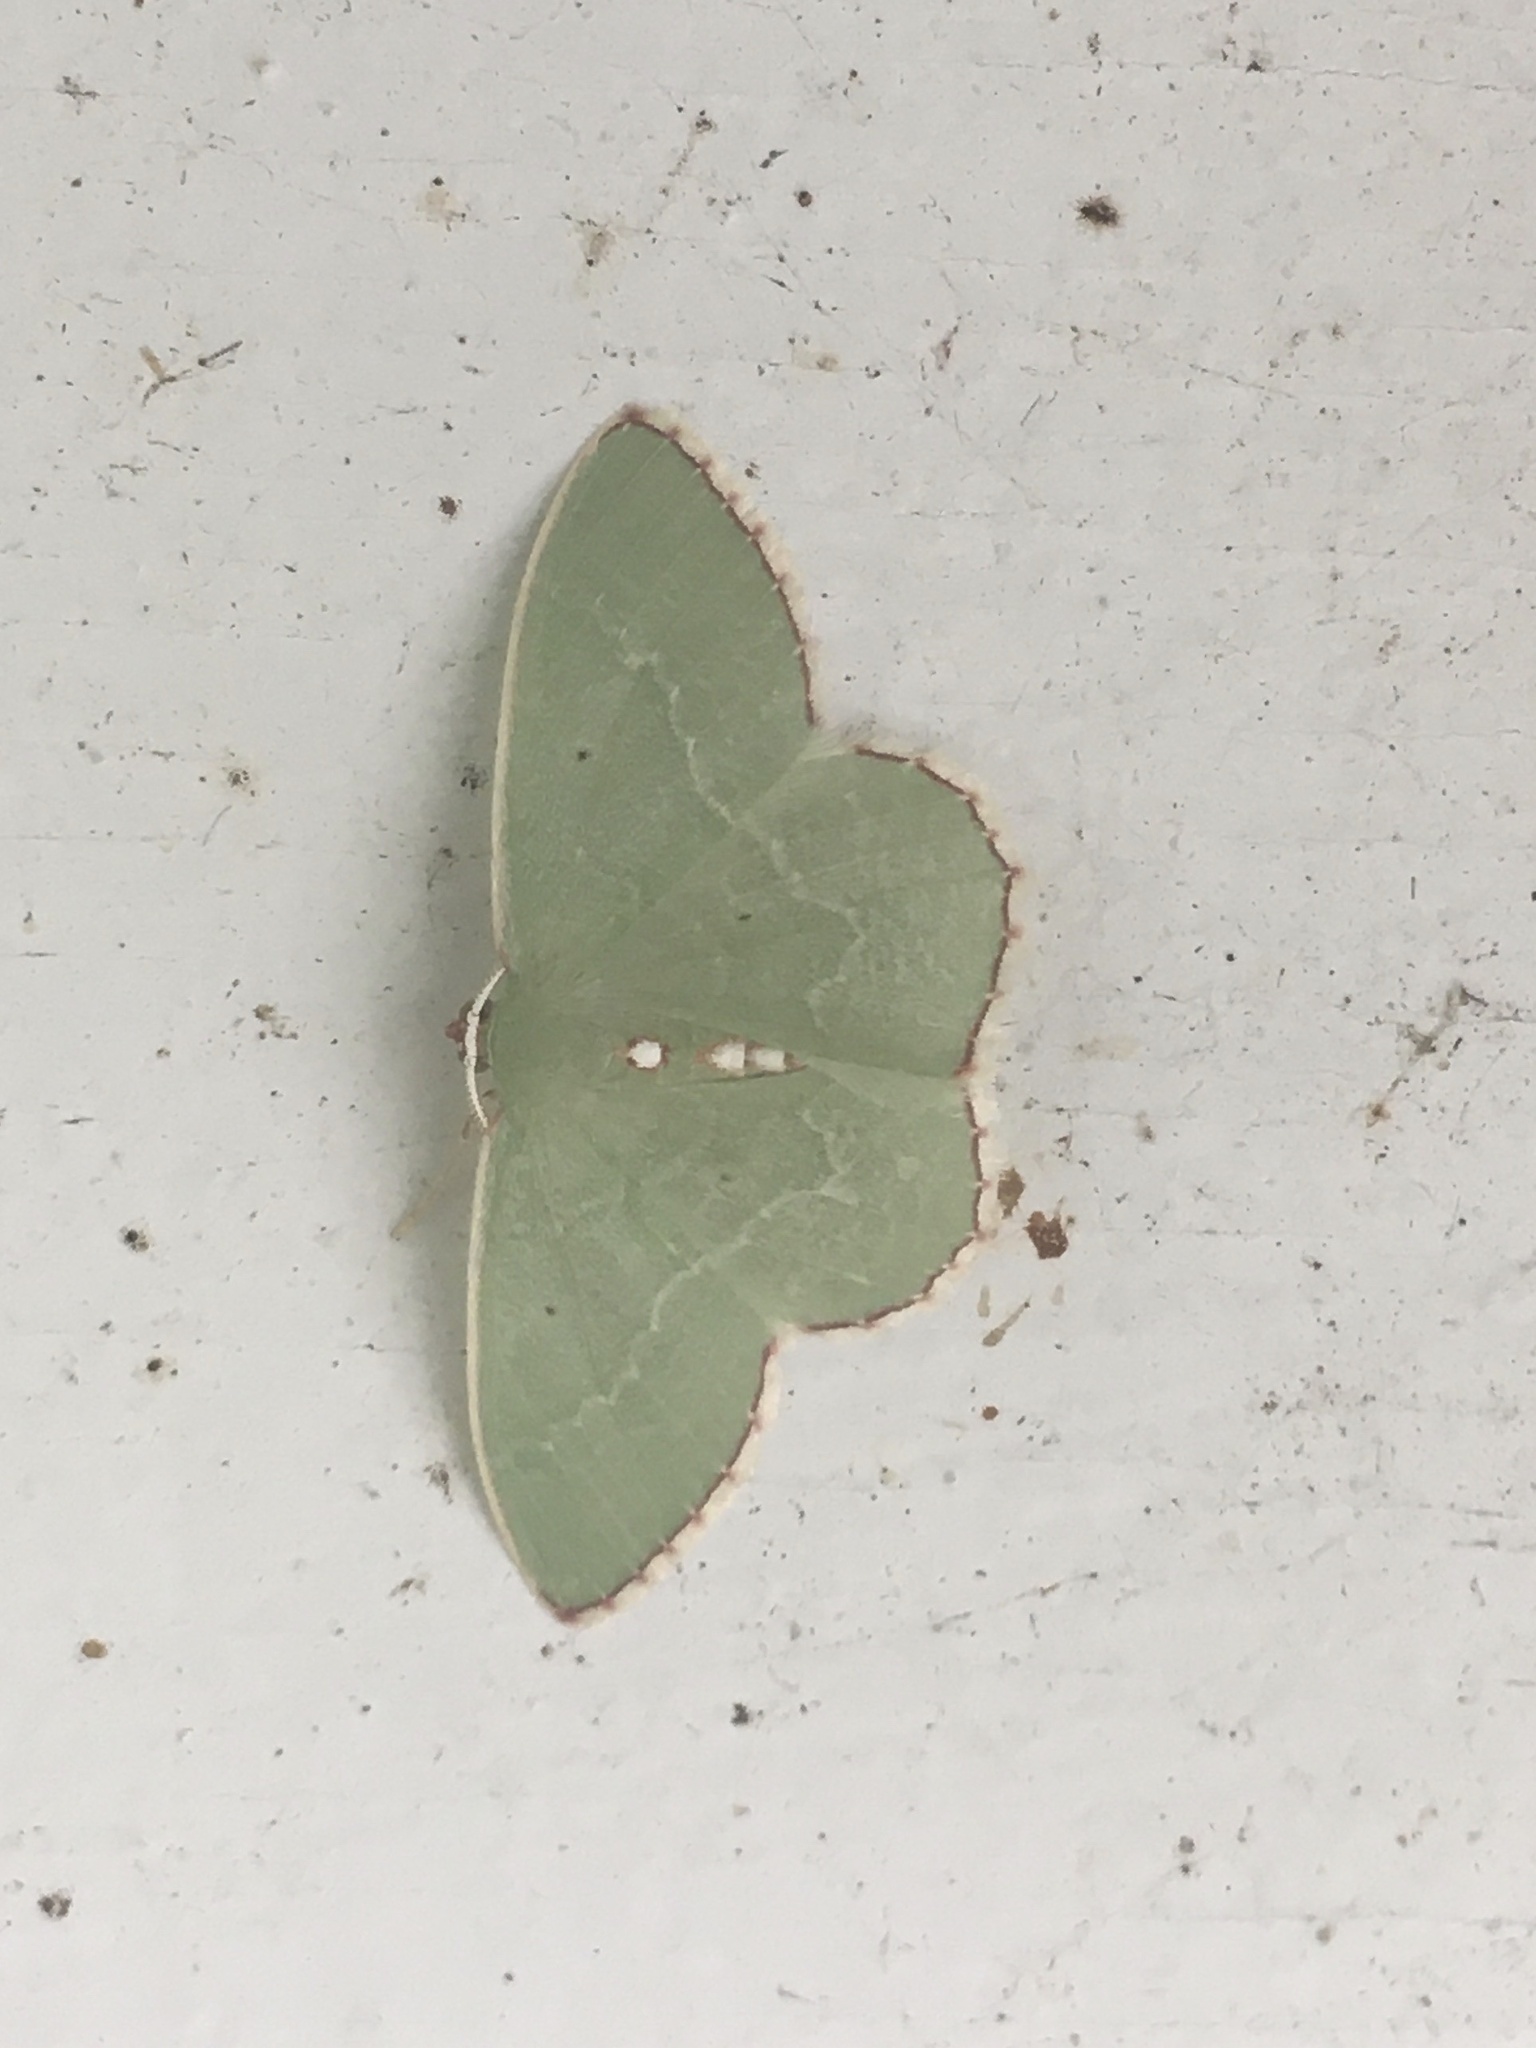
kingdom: Animalia
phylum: Arthropoda
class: Insecta
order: Lepidoptera
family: Geometridae
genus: Nemoria
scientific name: Nemoria lixaria
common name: Red-bordered emerald
